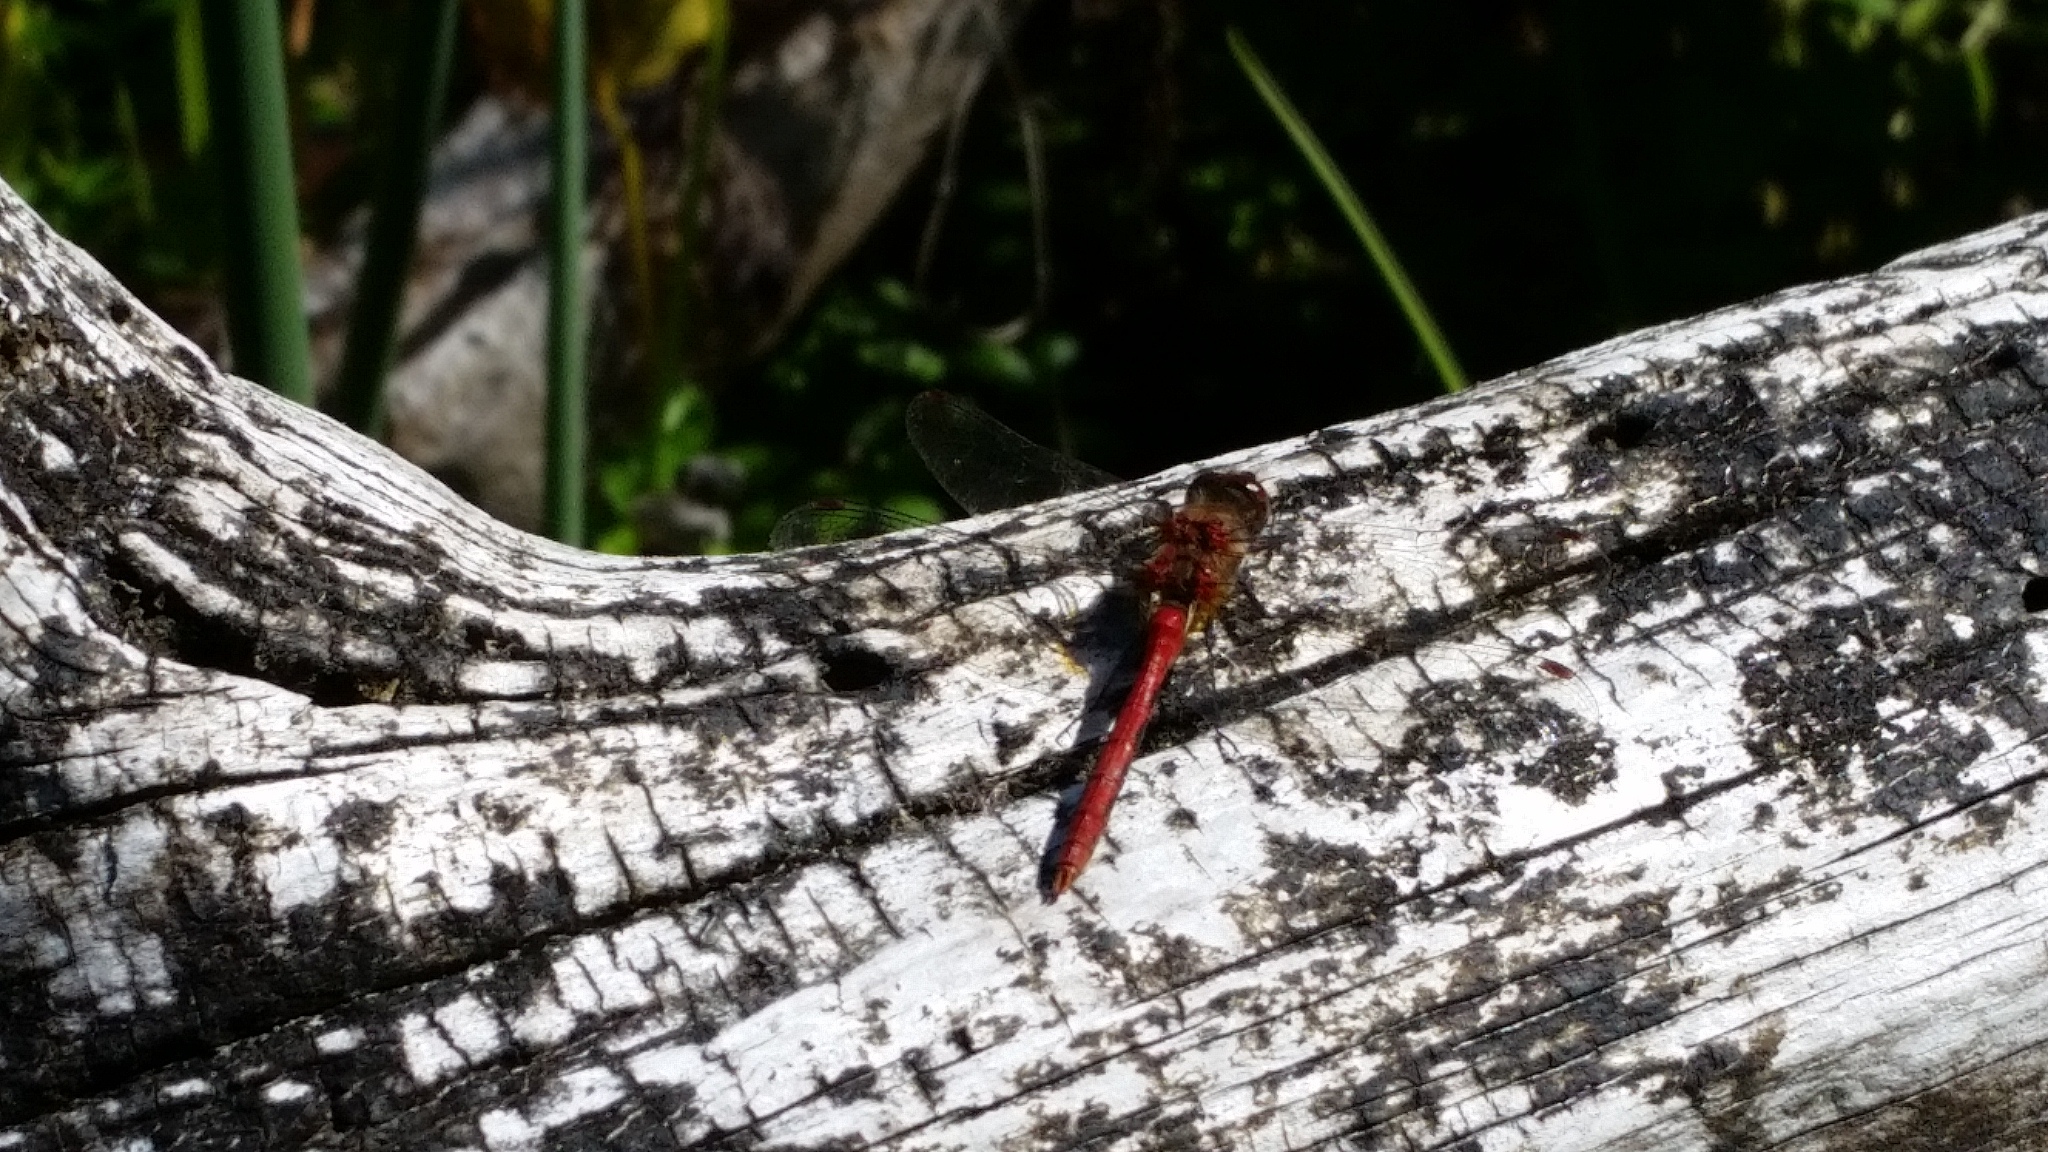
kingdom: Animalia
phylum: Arthropoda
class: Insecta
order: Odonata
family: Libellulidae
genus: Sympetrum
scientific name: Sympetrum pallipes
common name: Striped meadowhawk
